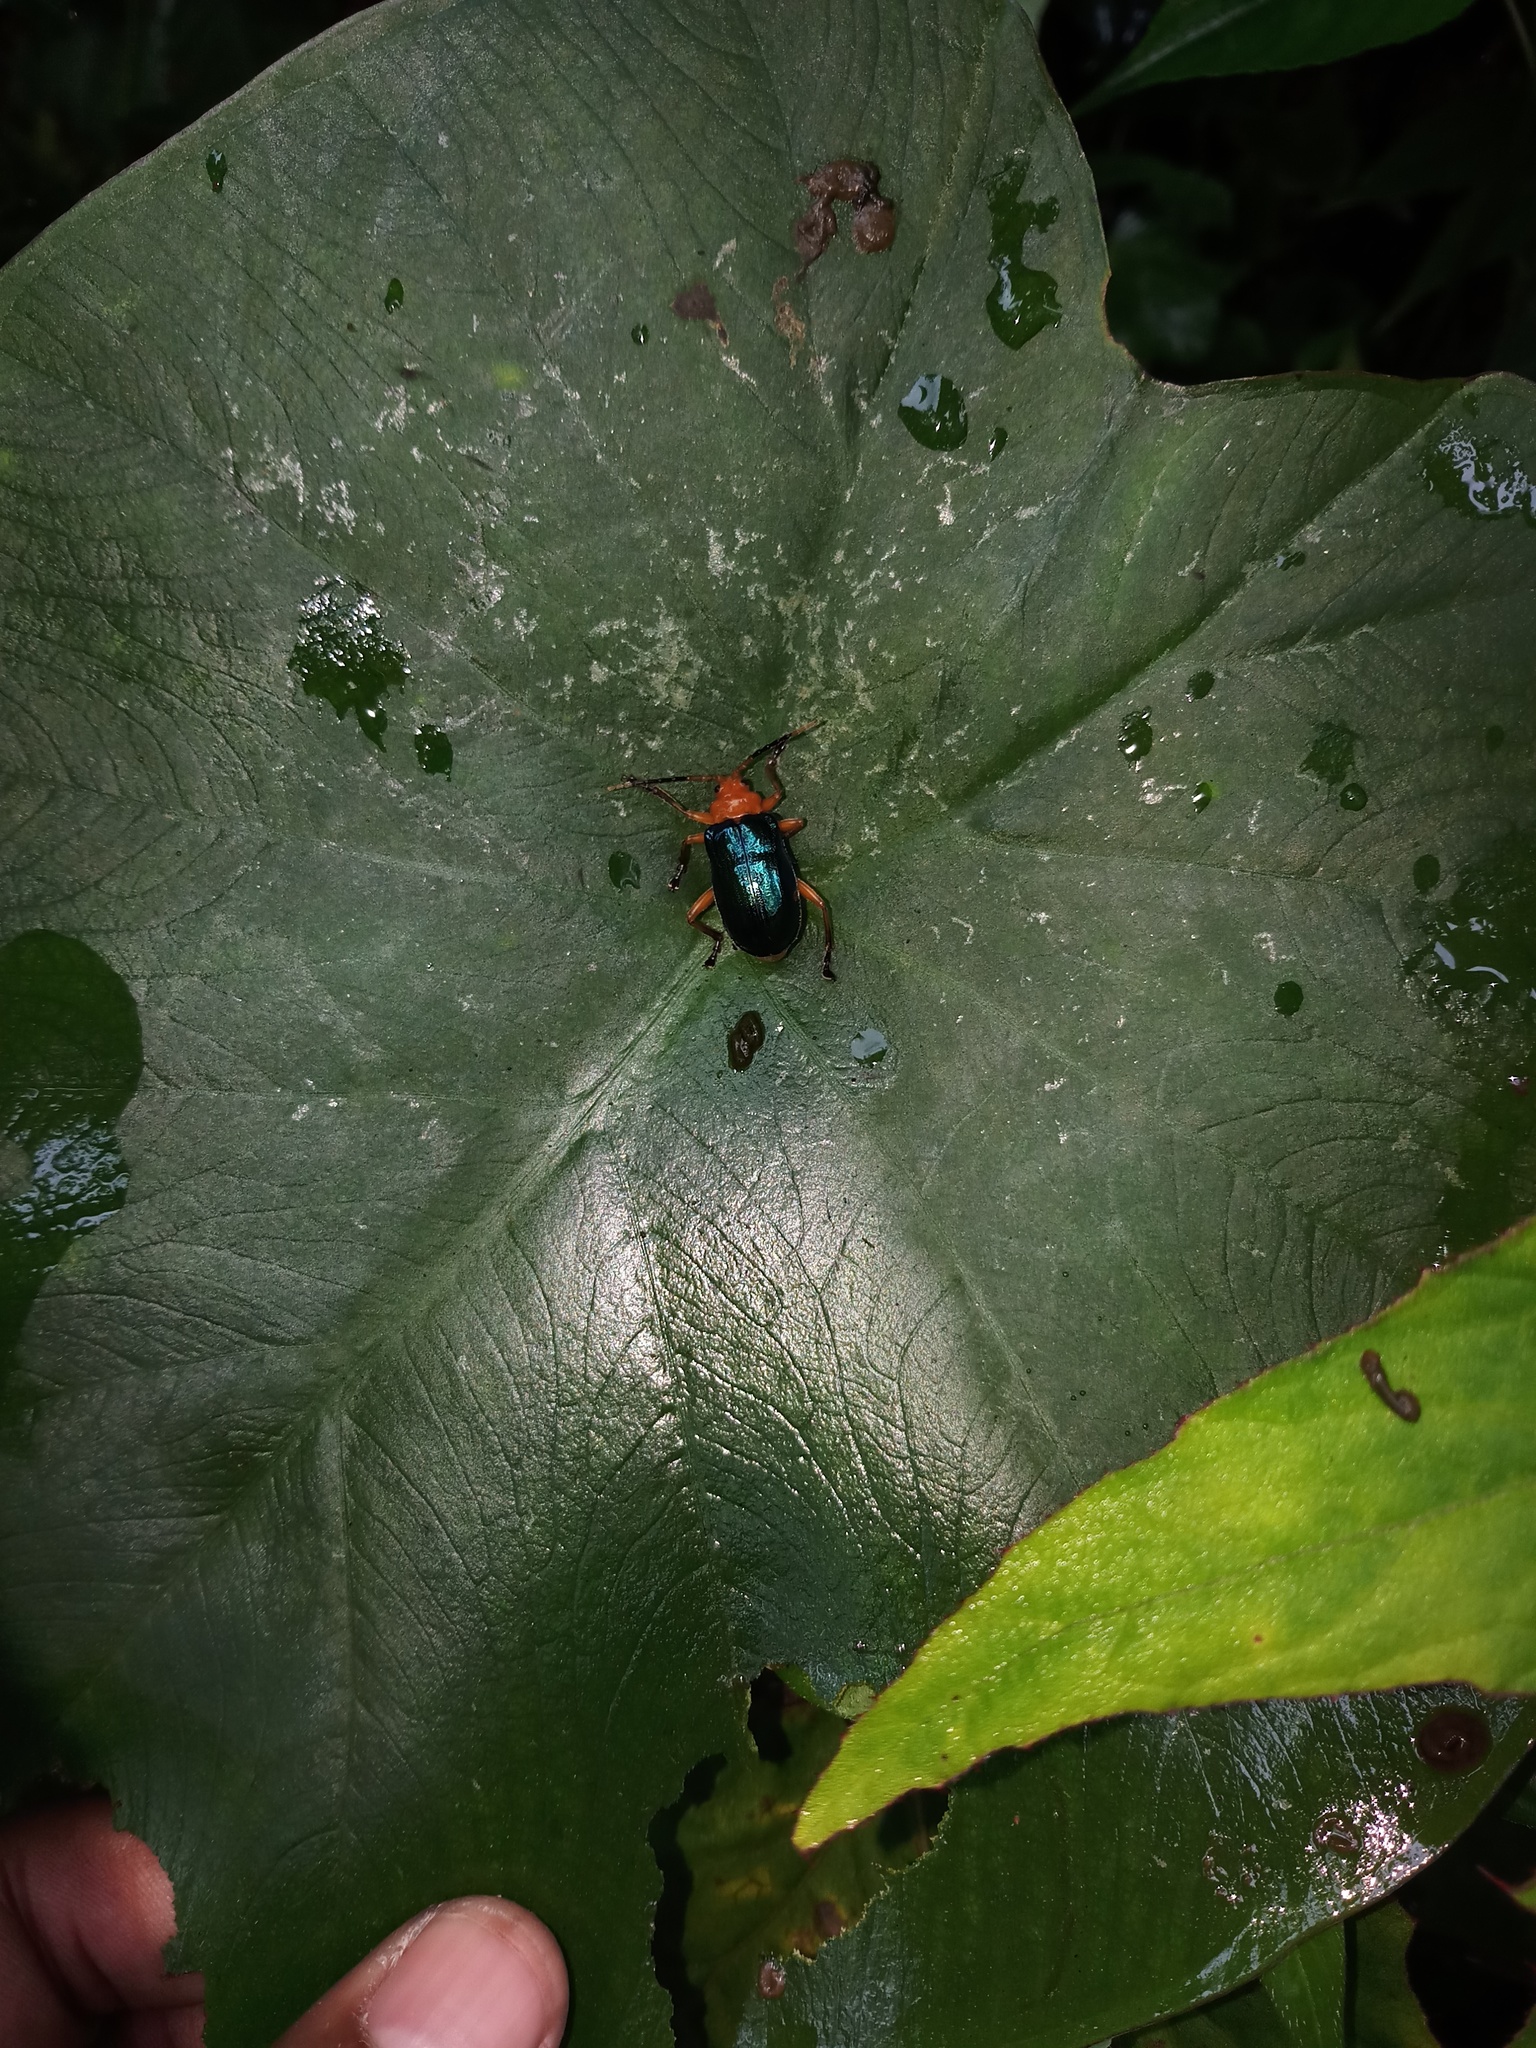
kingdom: Animalia
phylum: Arthropoda
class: Insecta
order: Coleoptera
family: Chrysomelidae
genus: Aplosonyx
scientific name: Aplosonyx chalybeus
